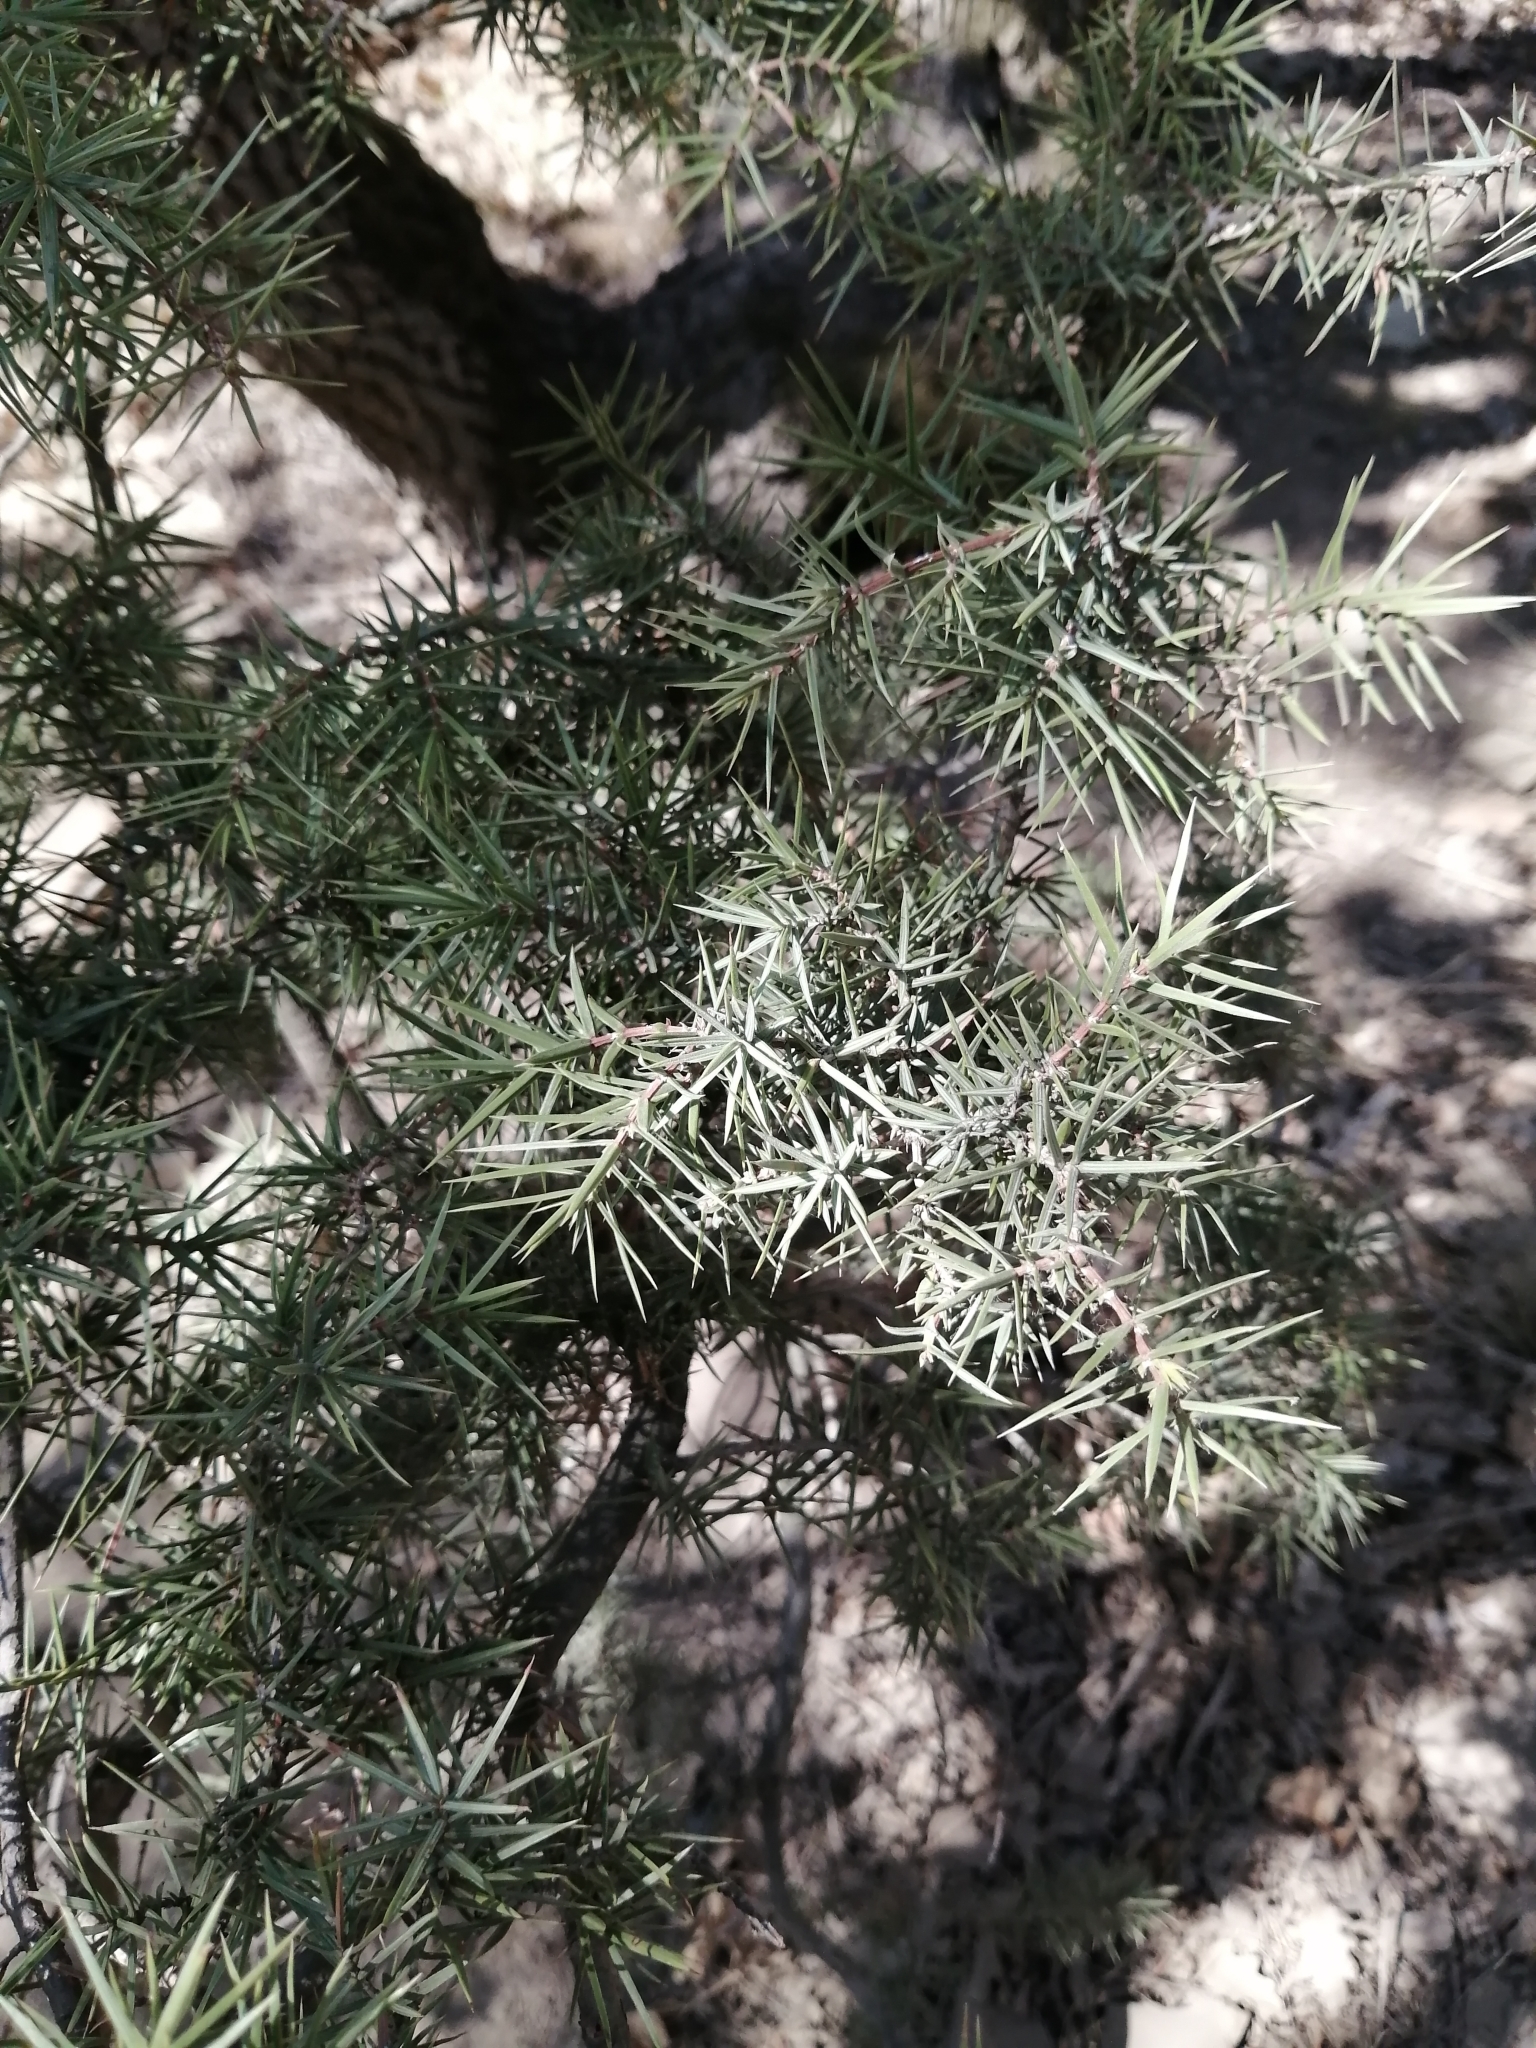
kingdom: Plantae
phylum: Tracheophyta
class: Pinopsida
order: Pinales
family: Cupressaceae
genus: Juniperus
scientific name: Juniperus oxycedrus
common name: Prickly juniper
